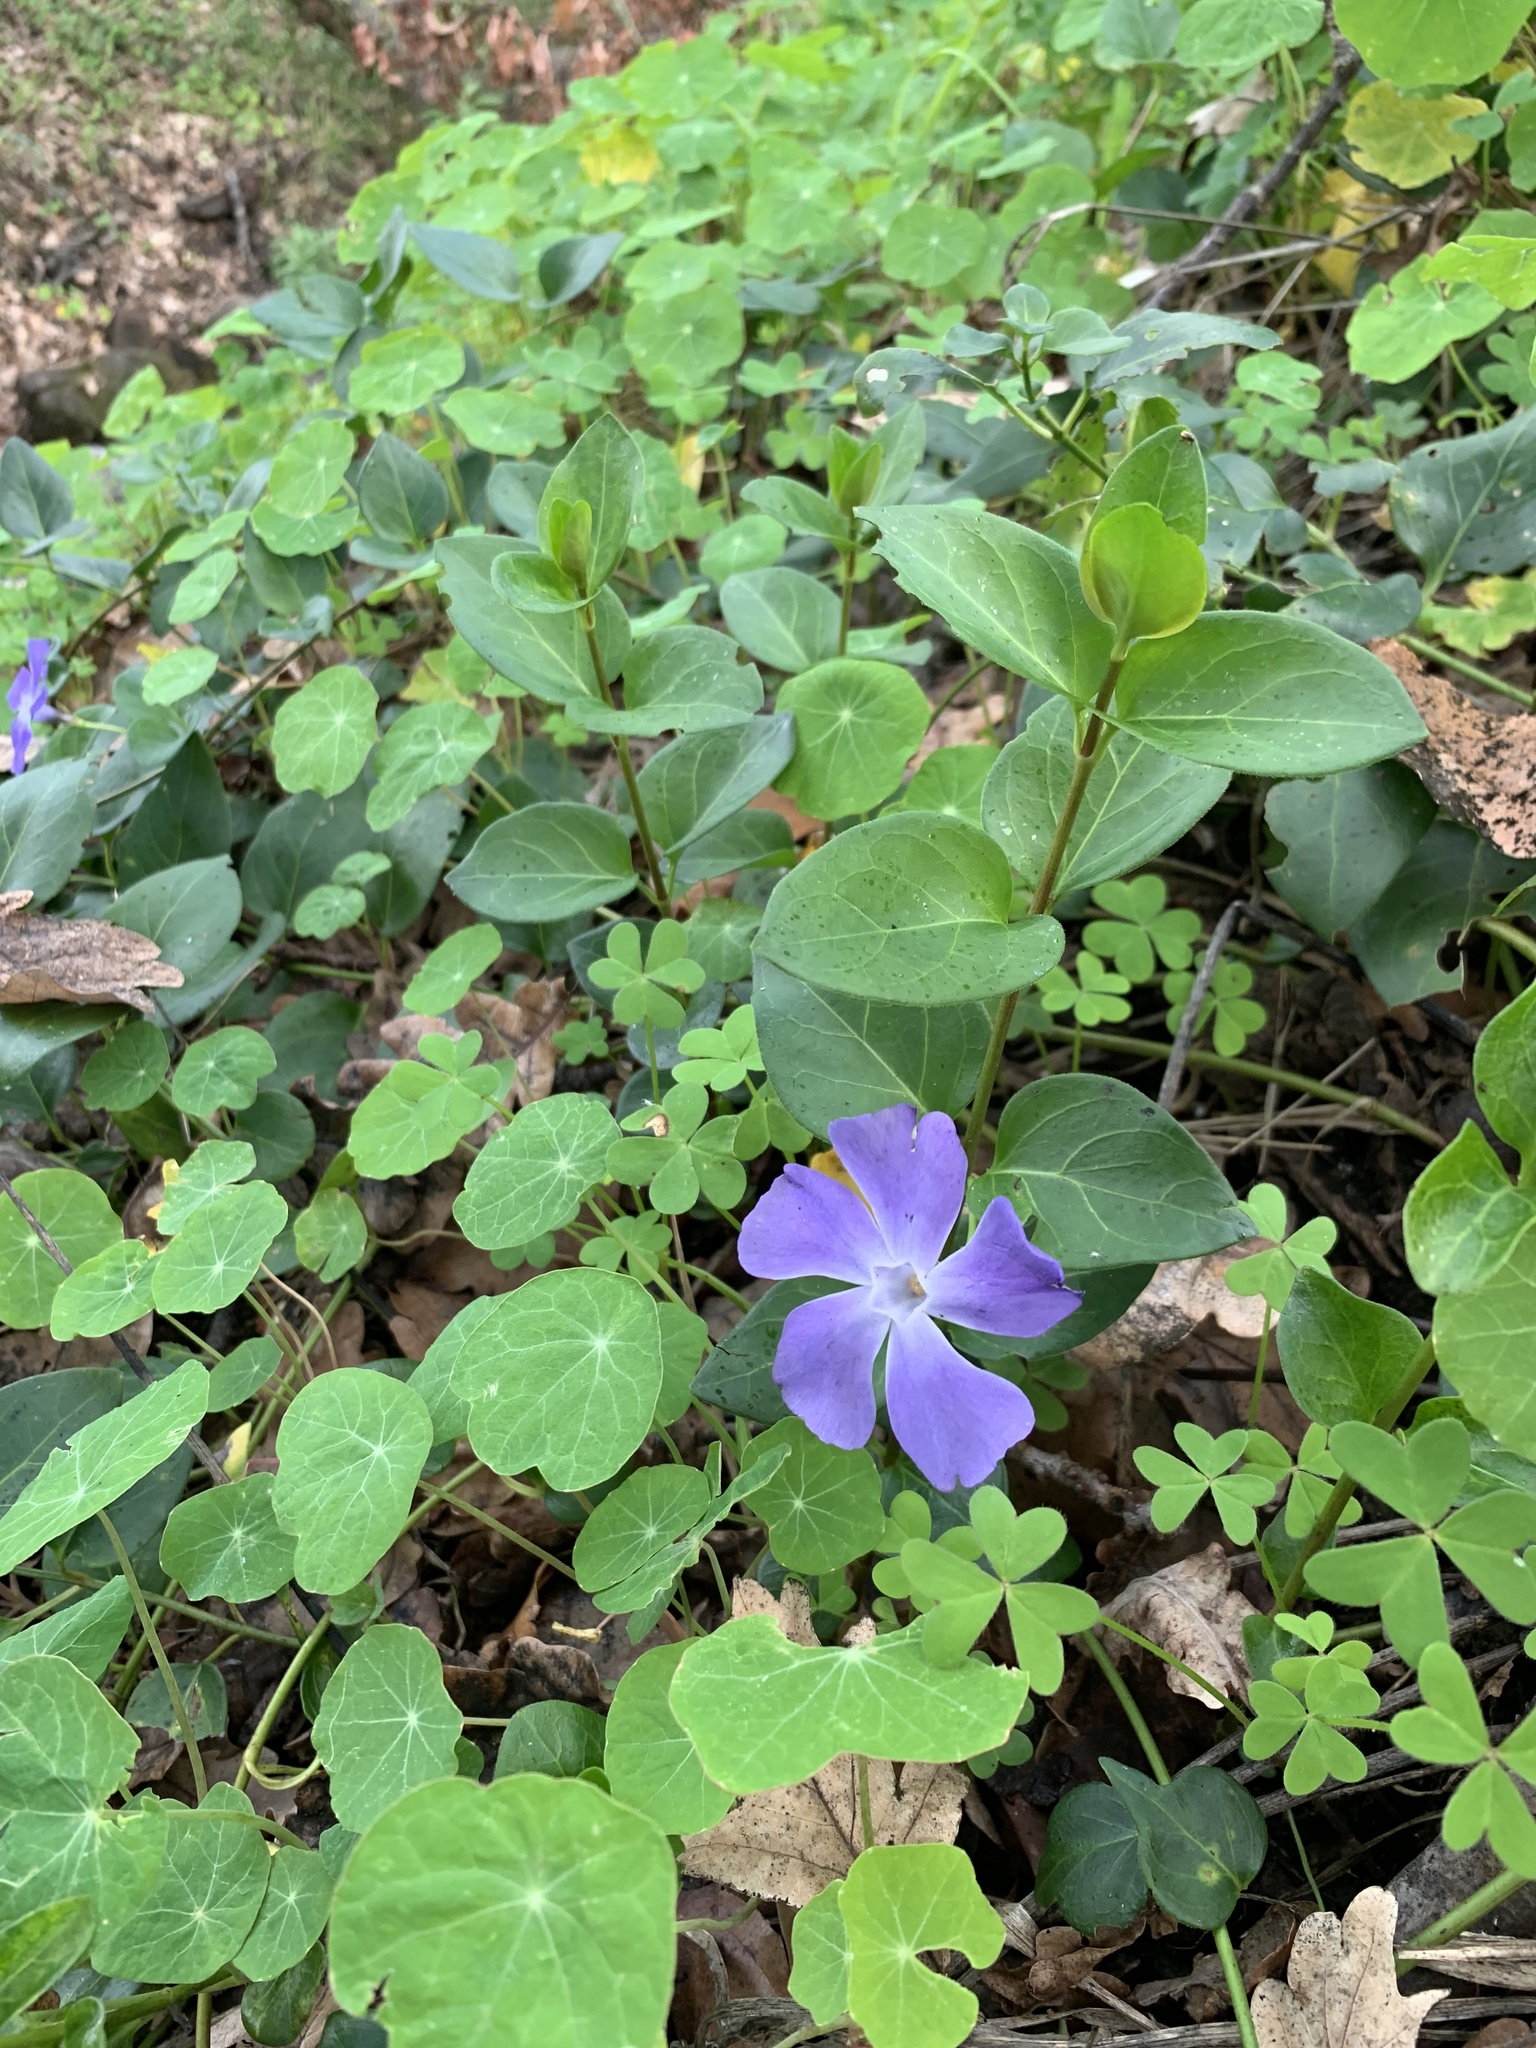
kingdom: Plantae
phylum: Tracheophyta
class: Magnoliopsida
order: Gentianales
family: Apocynaceae
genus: Vinca
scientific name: Vinca major
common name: Greater periwinkle
